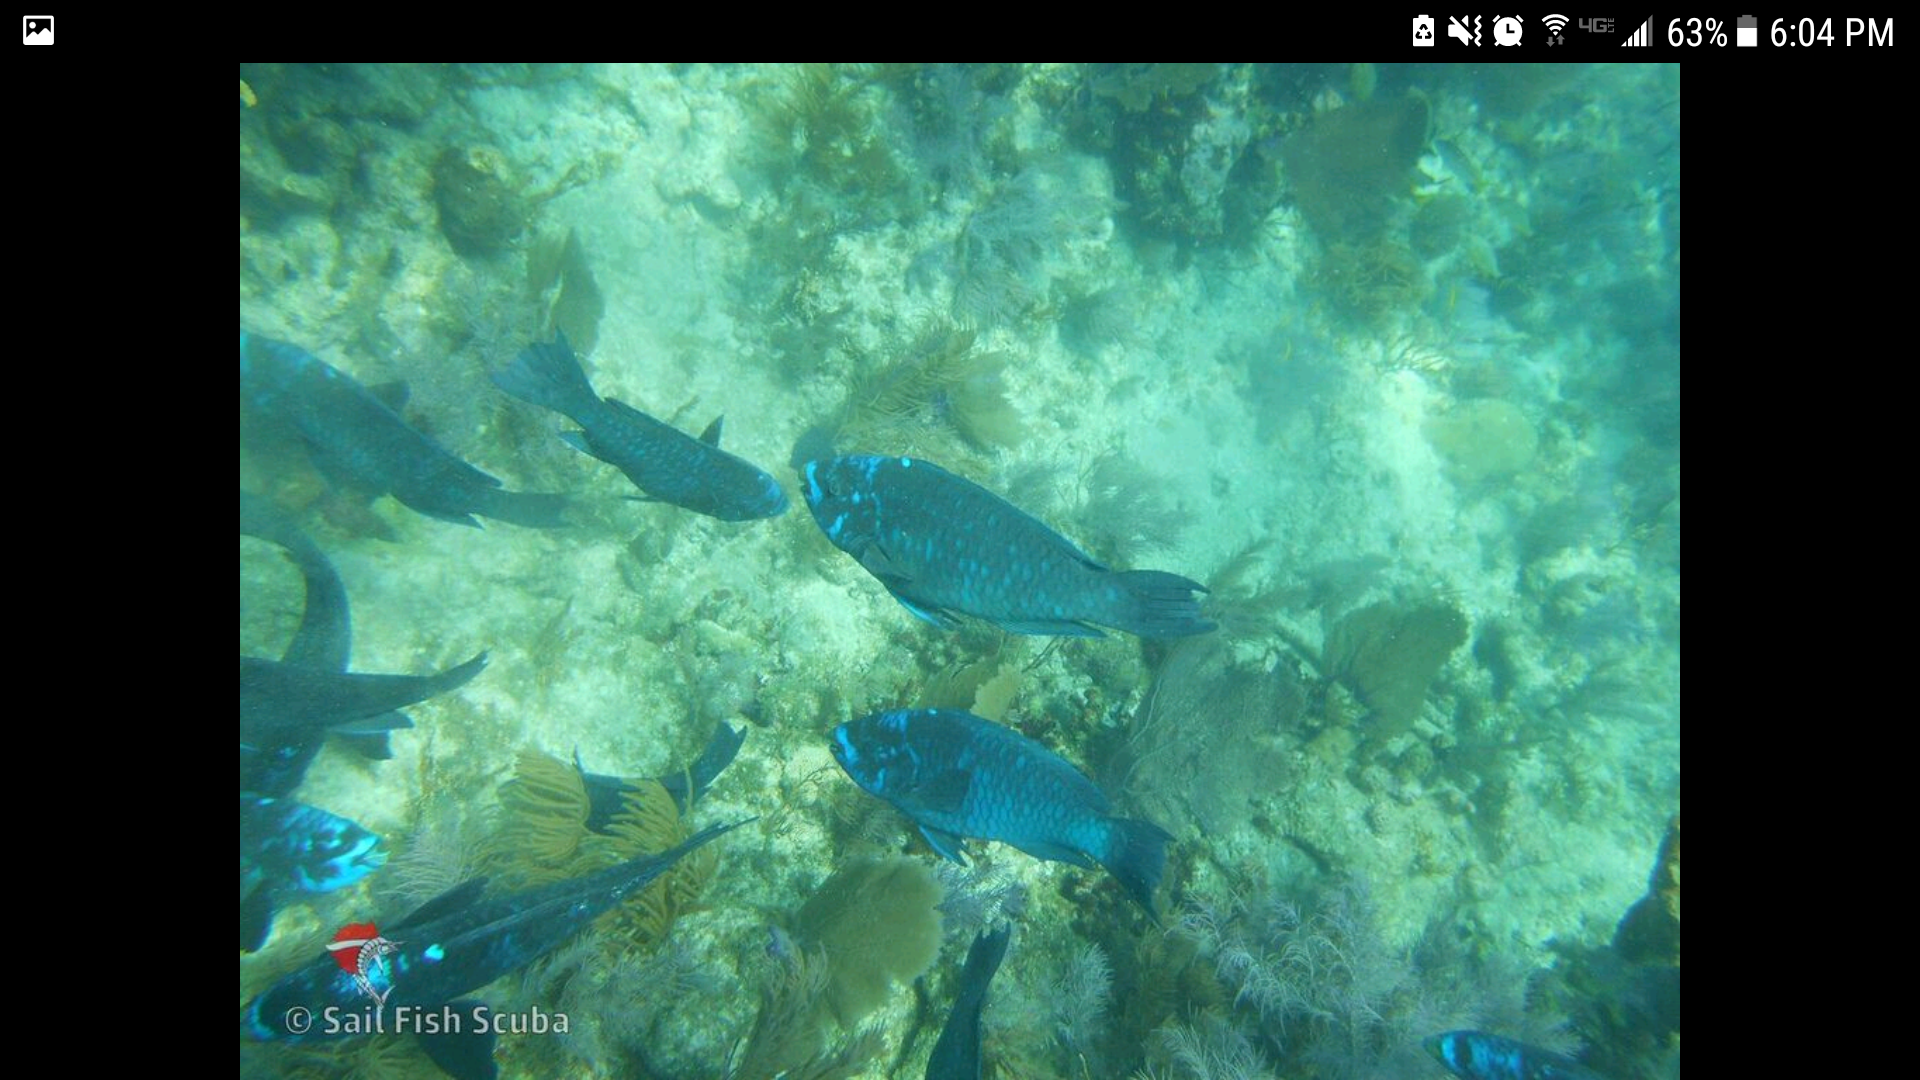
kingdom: Animalia
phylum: Chordata
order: Perciformes
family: Scaridae
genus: Scarus
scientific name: Scarus coelestinus
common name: Midnight parrotfish
